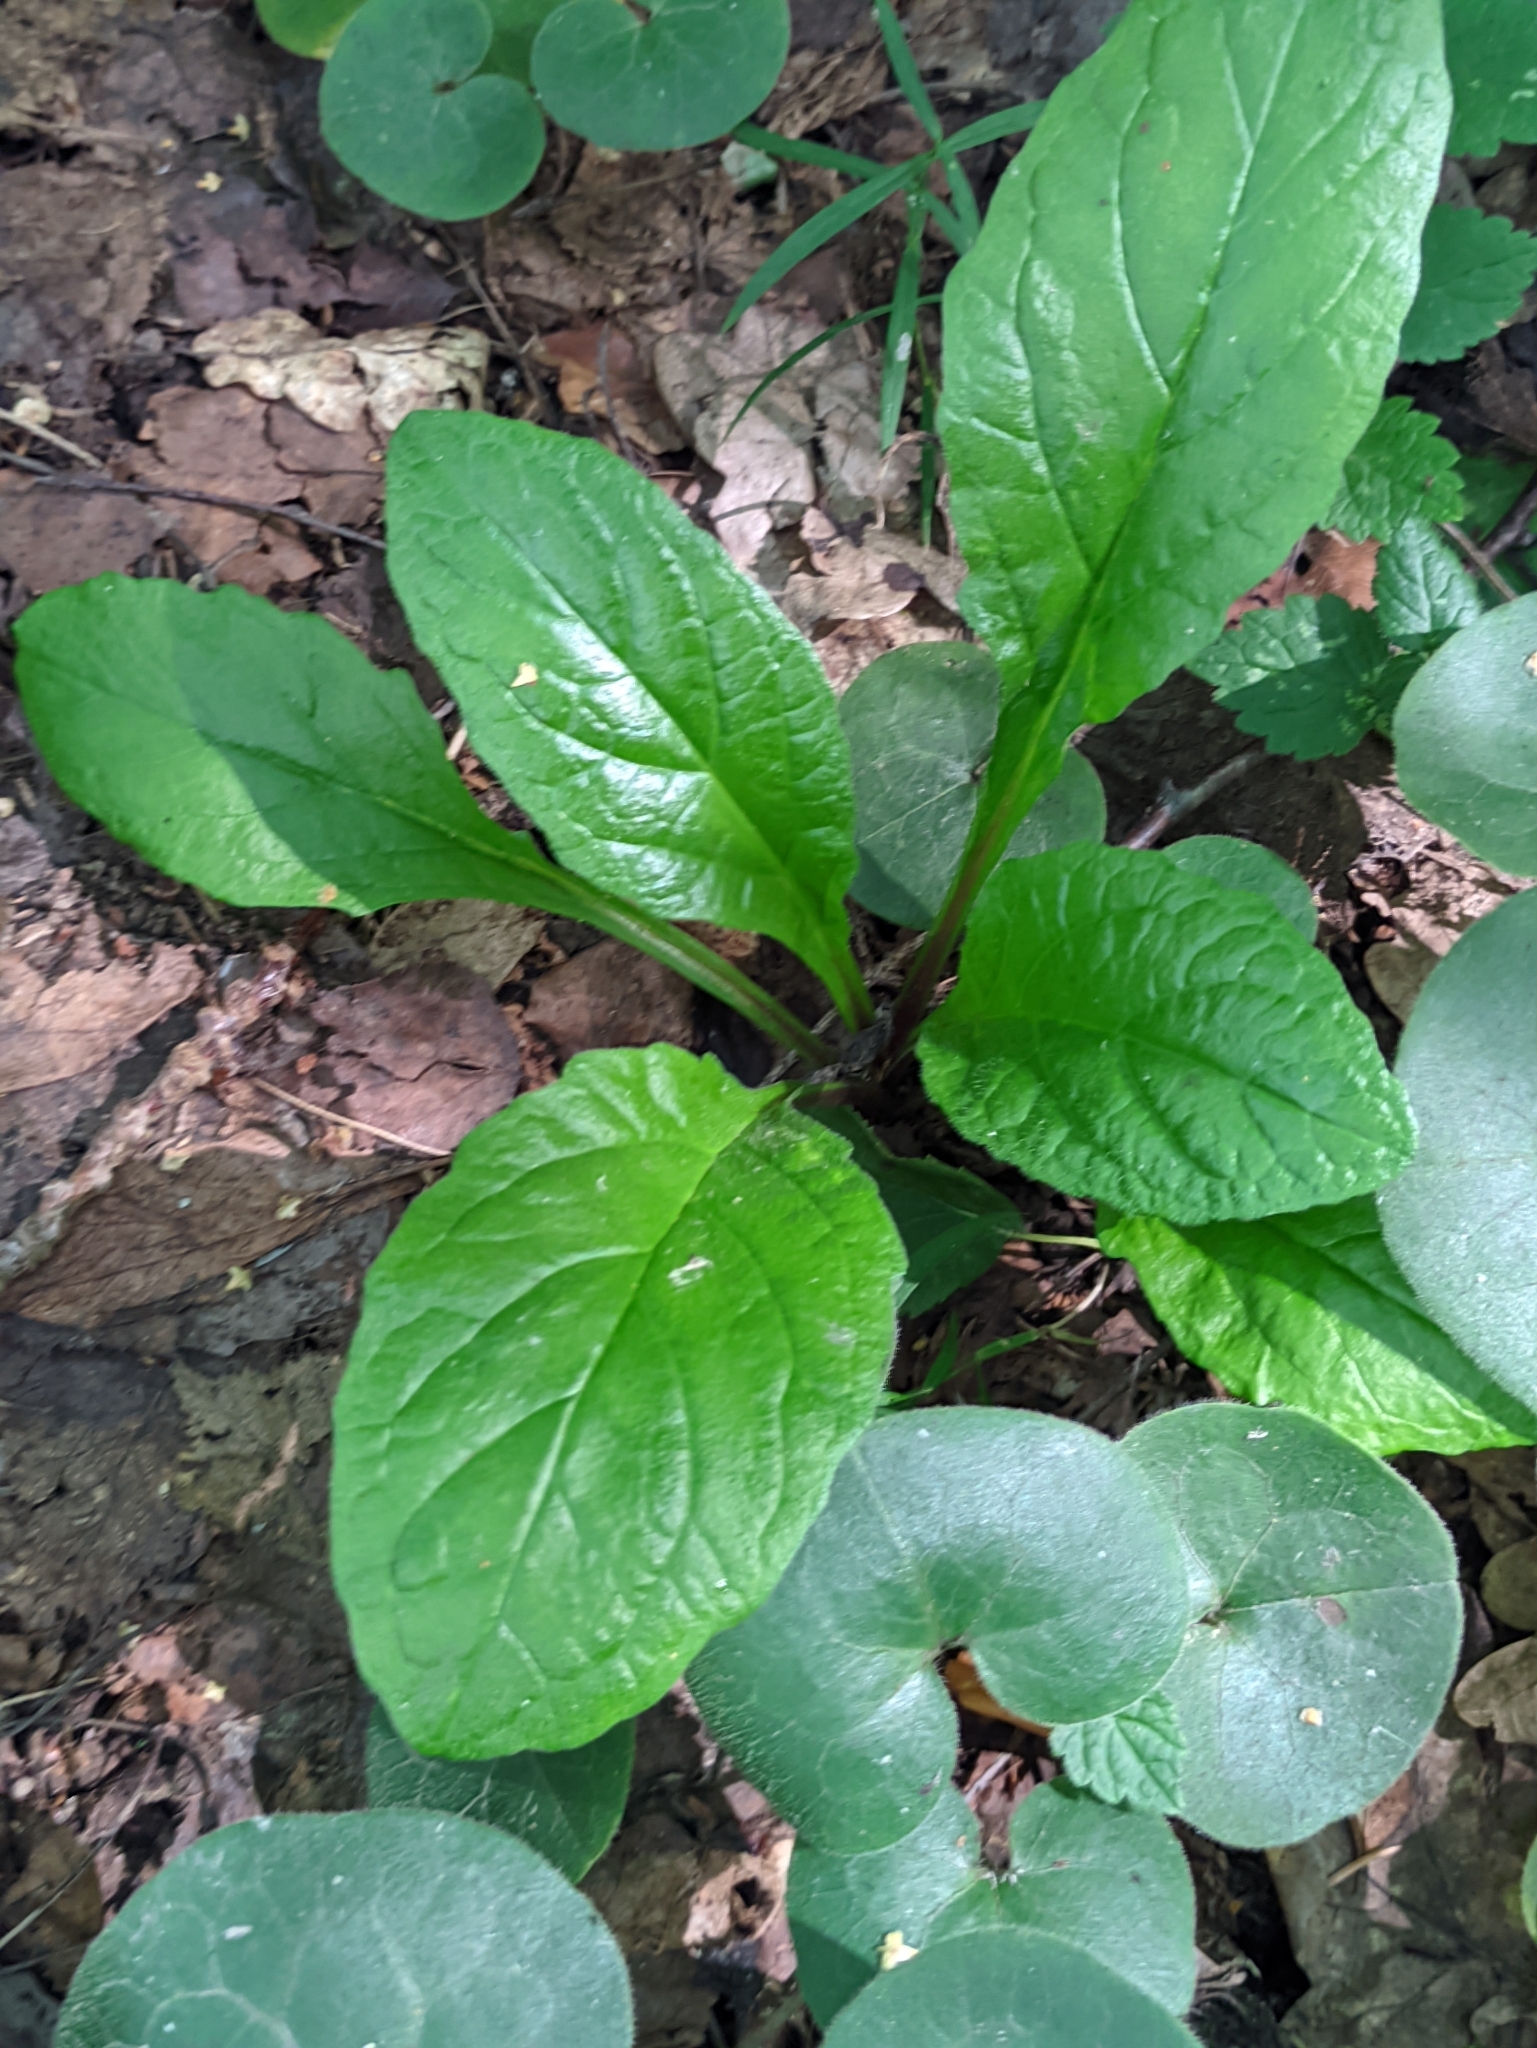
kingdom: Plantae
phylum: Tracheophyta
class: Magnoliopsida
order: Lamiales
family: Lamiaceae
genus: Ajuga
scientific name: Ajuga reptans
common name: Bugle
